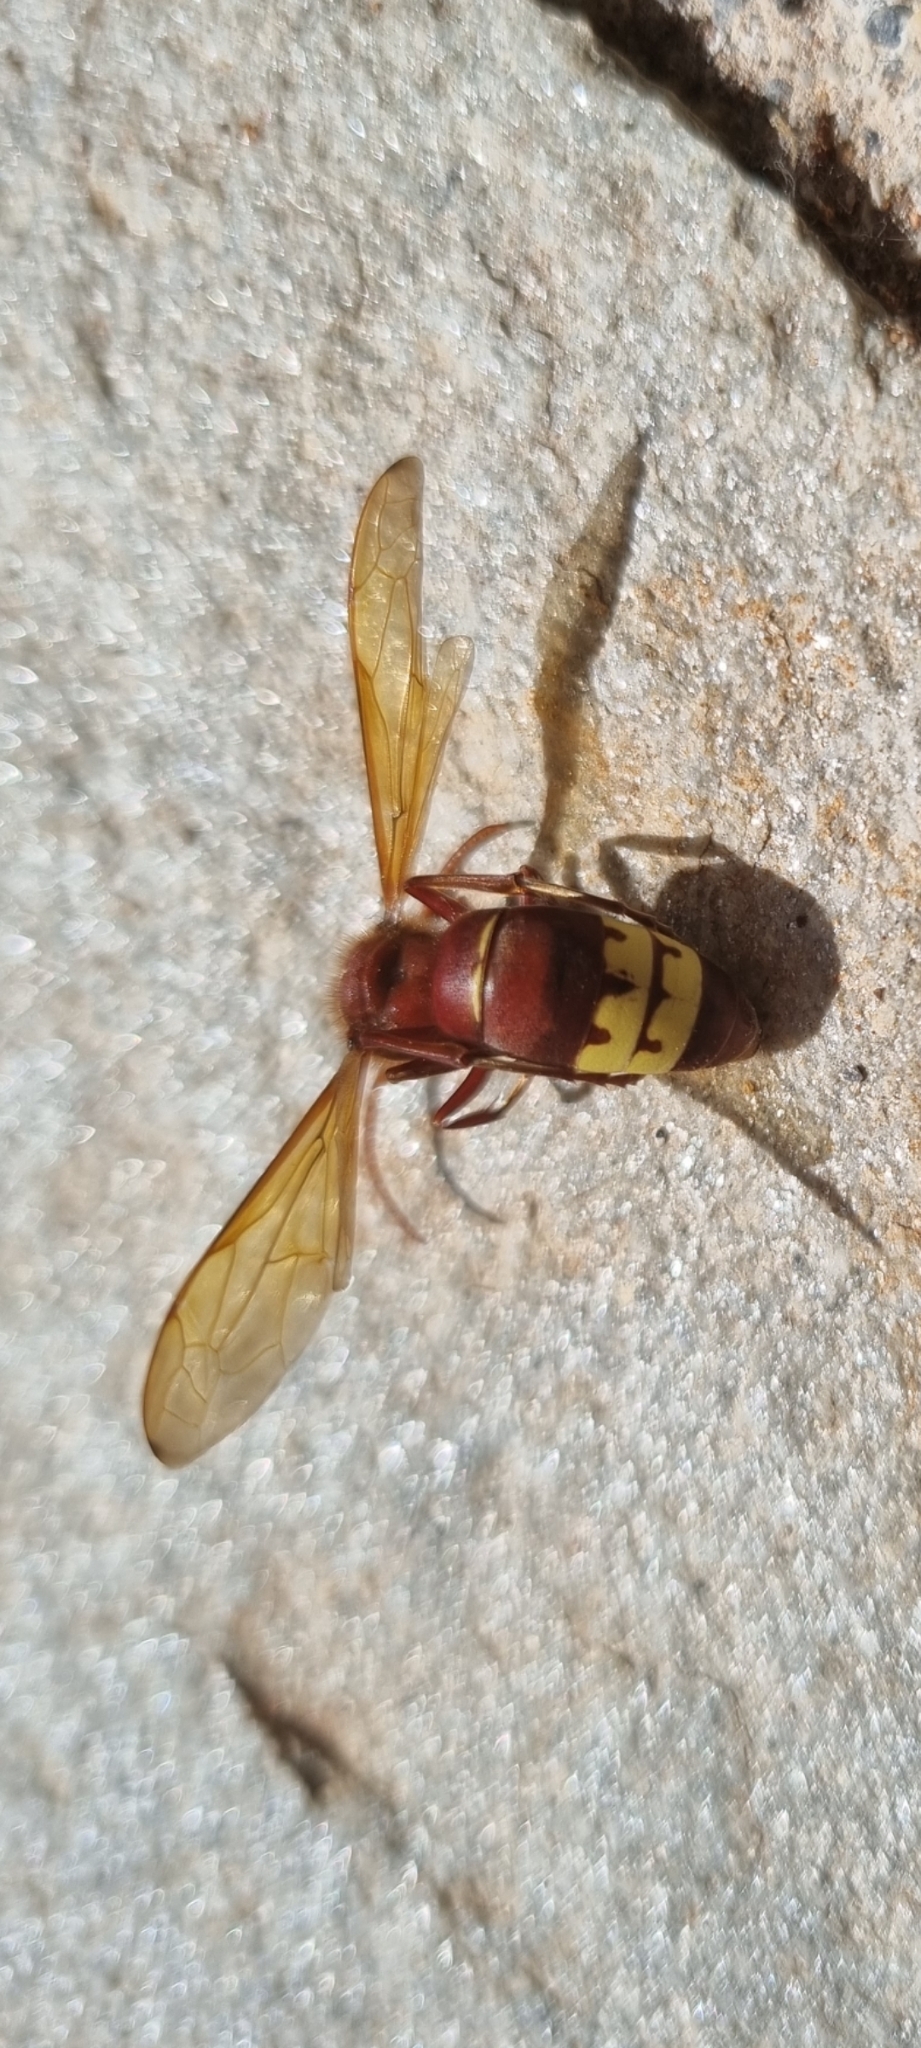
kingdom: Animalia
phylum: Arthropoda
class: Insecta
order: Hymenoptera
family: Vespidae
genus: Vespa
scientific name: Vespa orientalis
